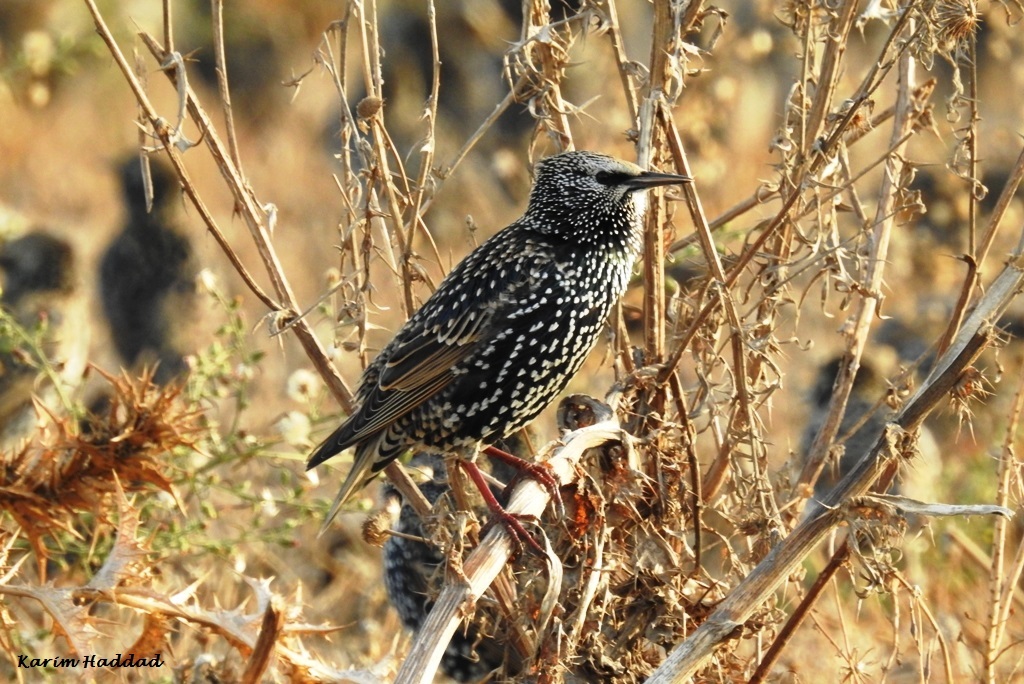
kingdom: Animalia
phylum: Chordata
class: Aves
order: Passeriformes
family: Sturnidae
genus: Sturnus
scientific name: Sturnus vulgaris
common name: Common starling
